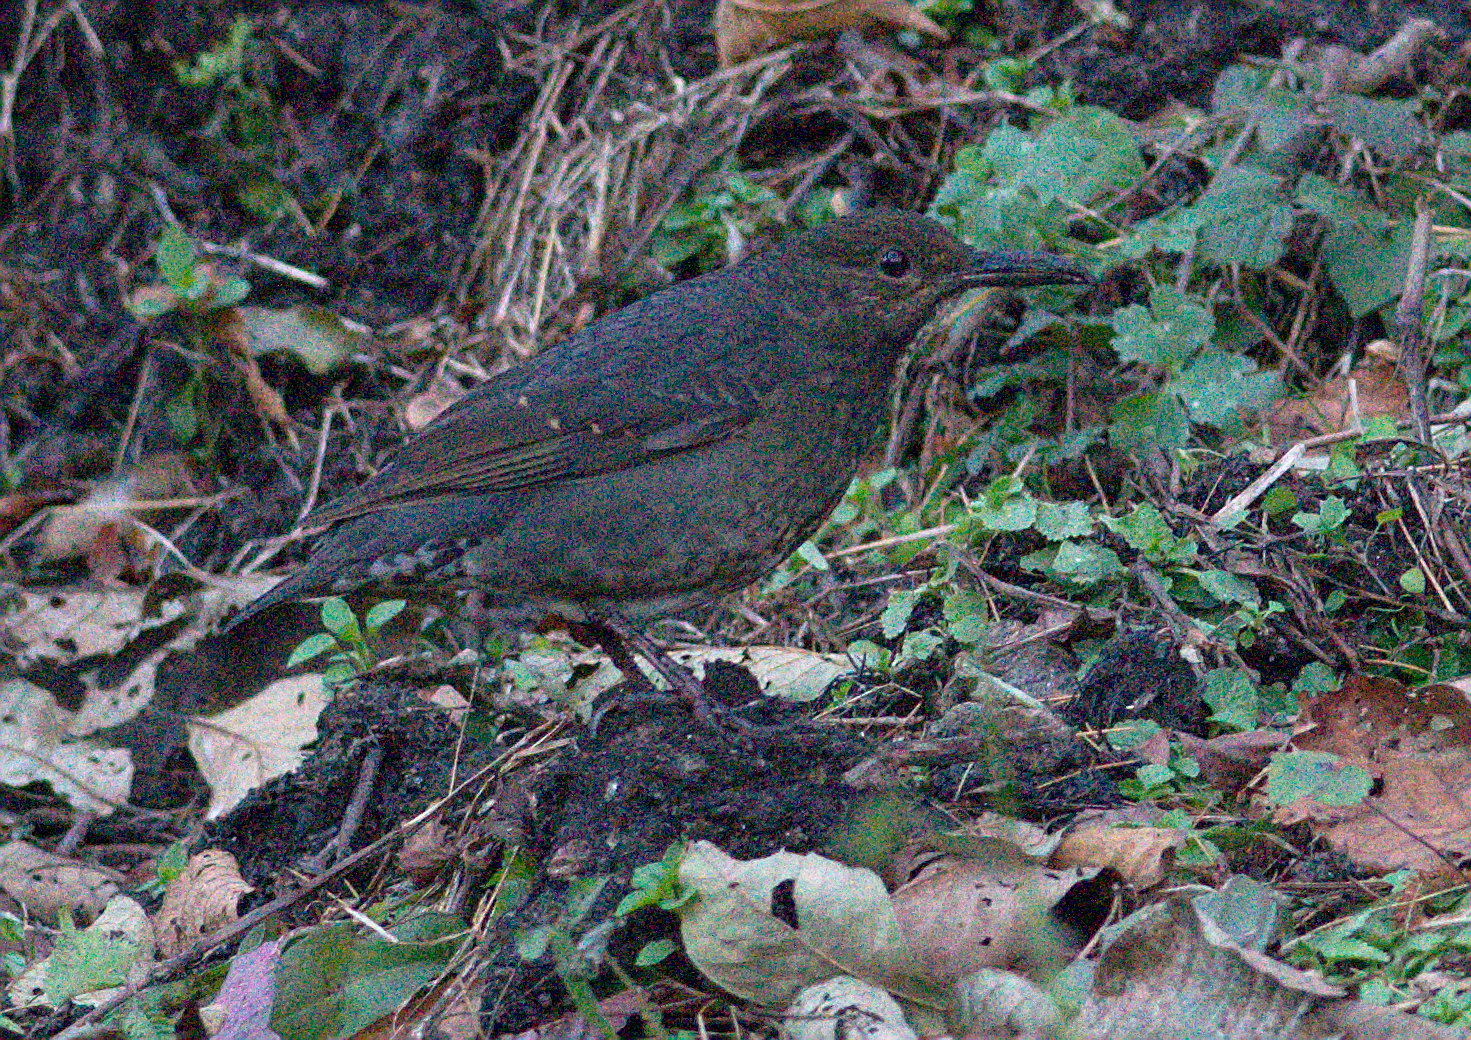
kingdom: Animalia
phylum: Chordata
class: Aves
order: Passeriformes
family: Turdidae
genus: Zoothera
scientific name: Zoothera monticola
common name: Long-billed thrush
